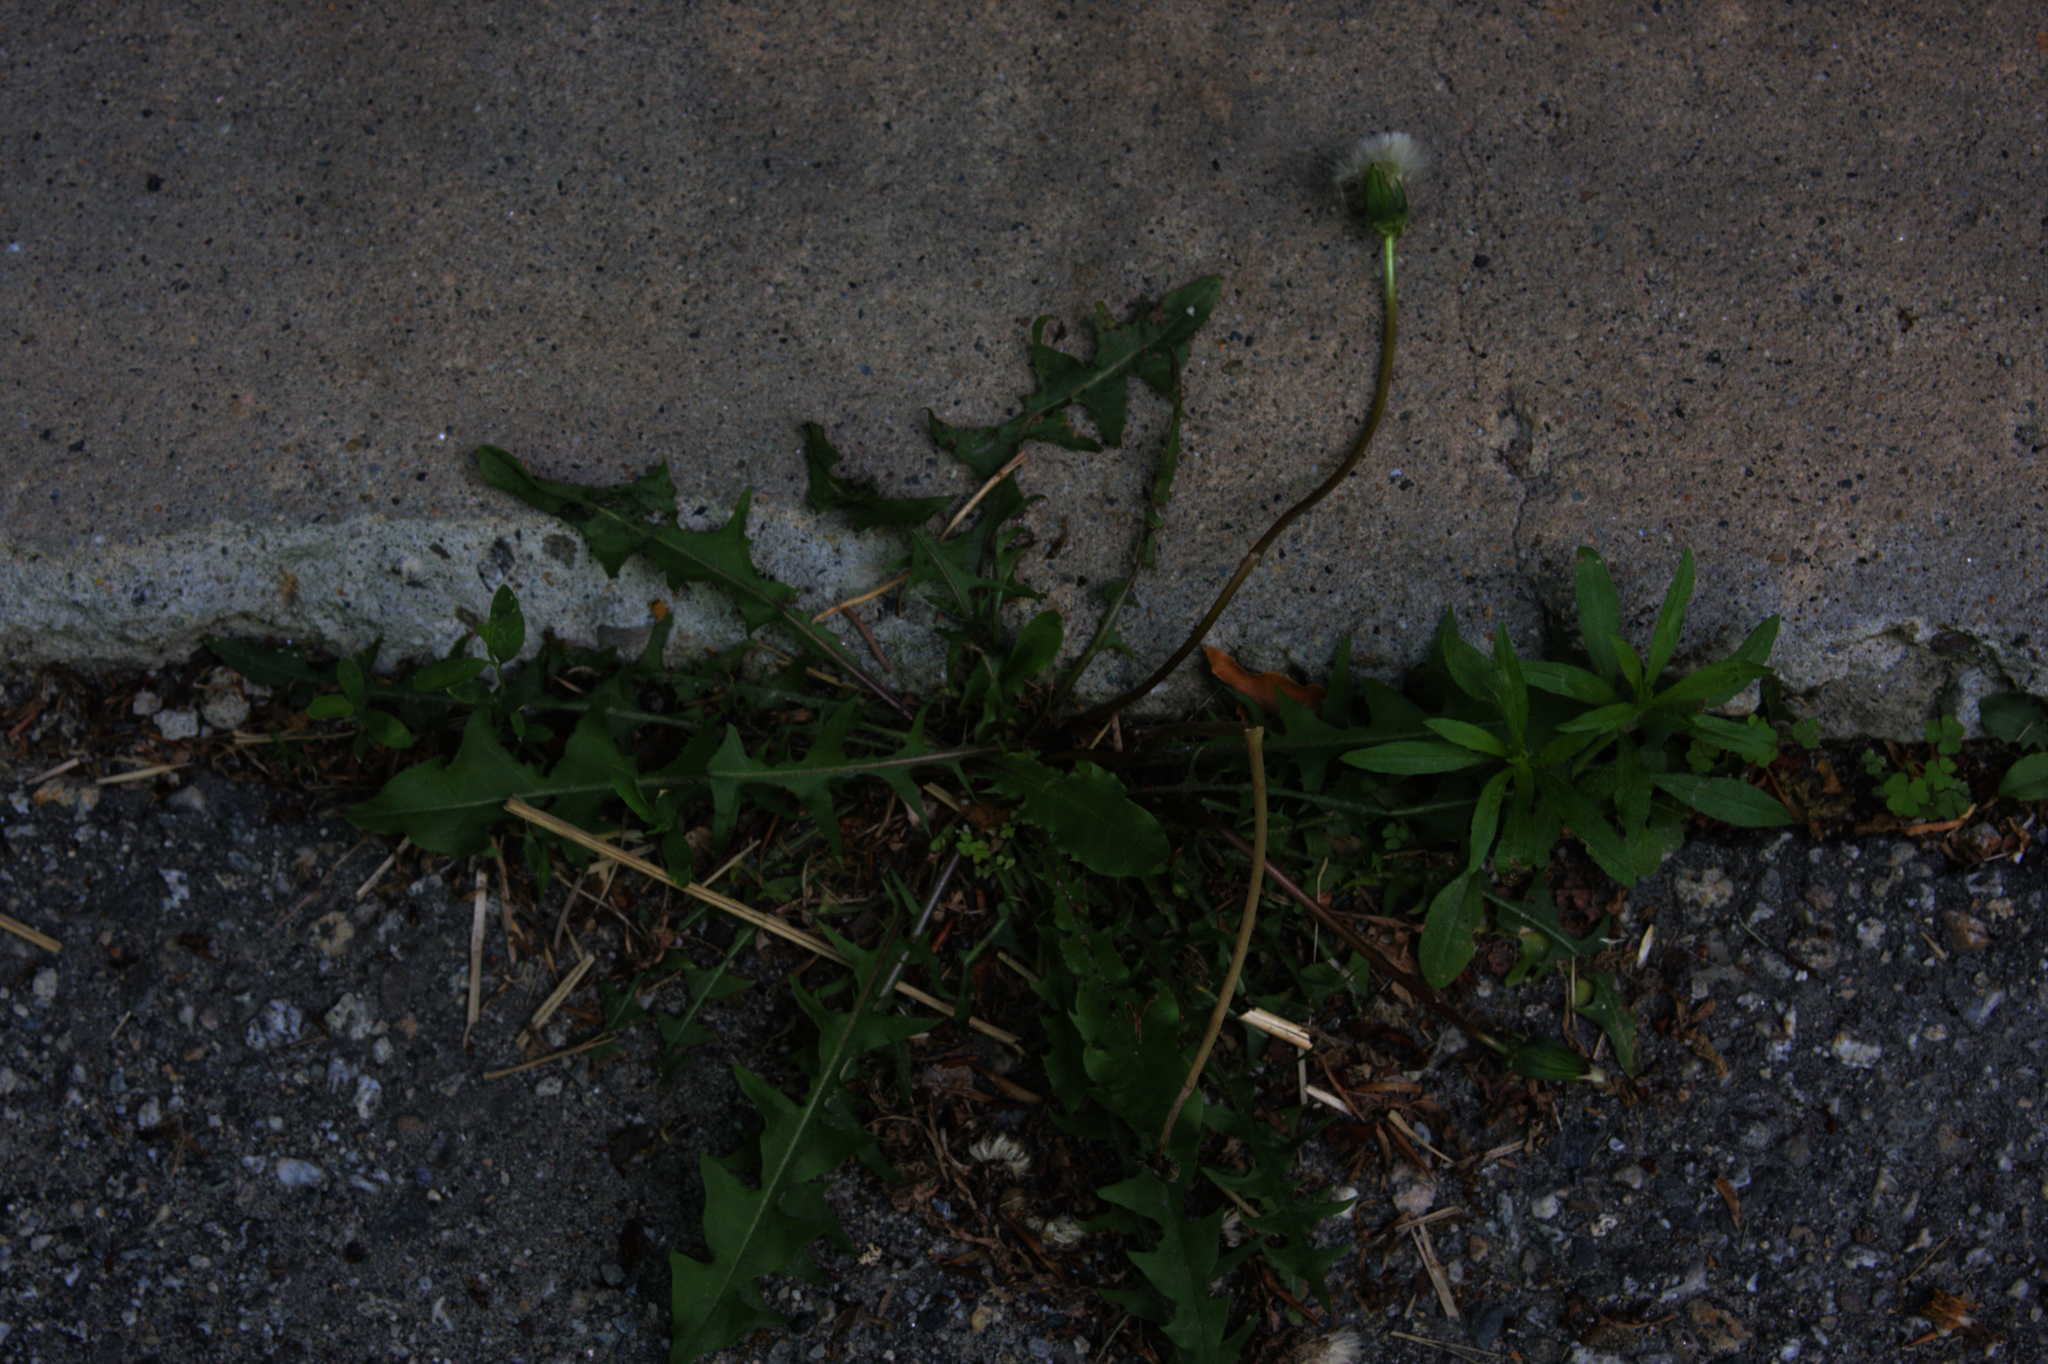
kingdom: Plantae
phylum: Tracheophyta
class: Magnoliopsida
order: Asterales
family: Asteraceae
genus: Taraxacum
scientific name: Taraxacum officinale
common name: Common dandelion
